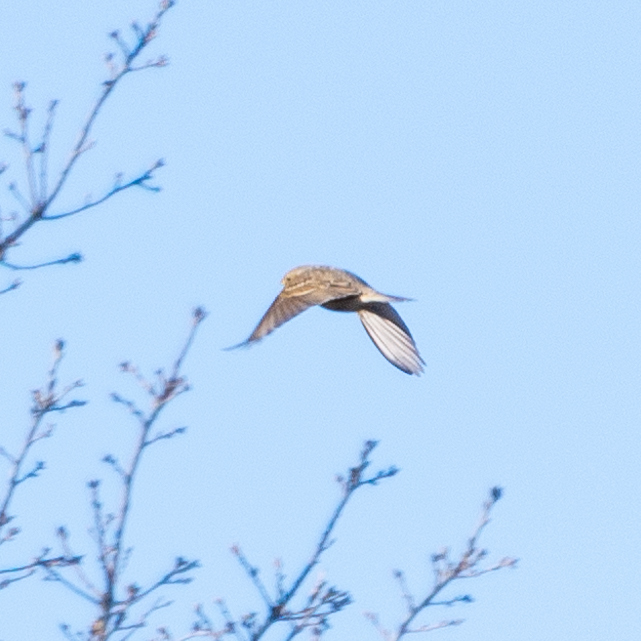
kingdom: Animalia
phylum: Chordata
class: Aves
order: Passeriformes
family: Emberizidae
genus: Emberiza
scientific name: Emberiza calandra
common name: Corn bunting
